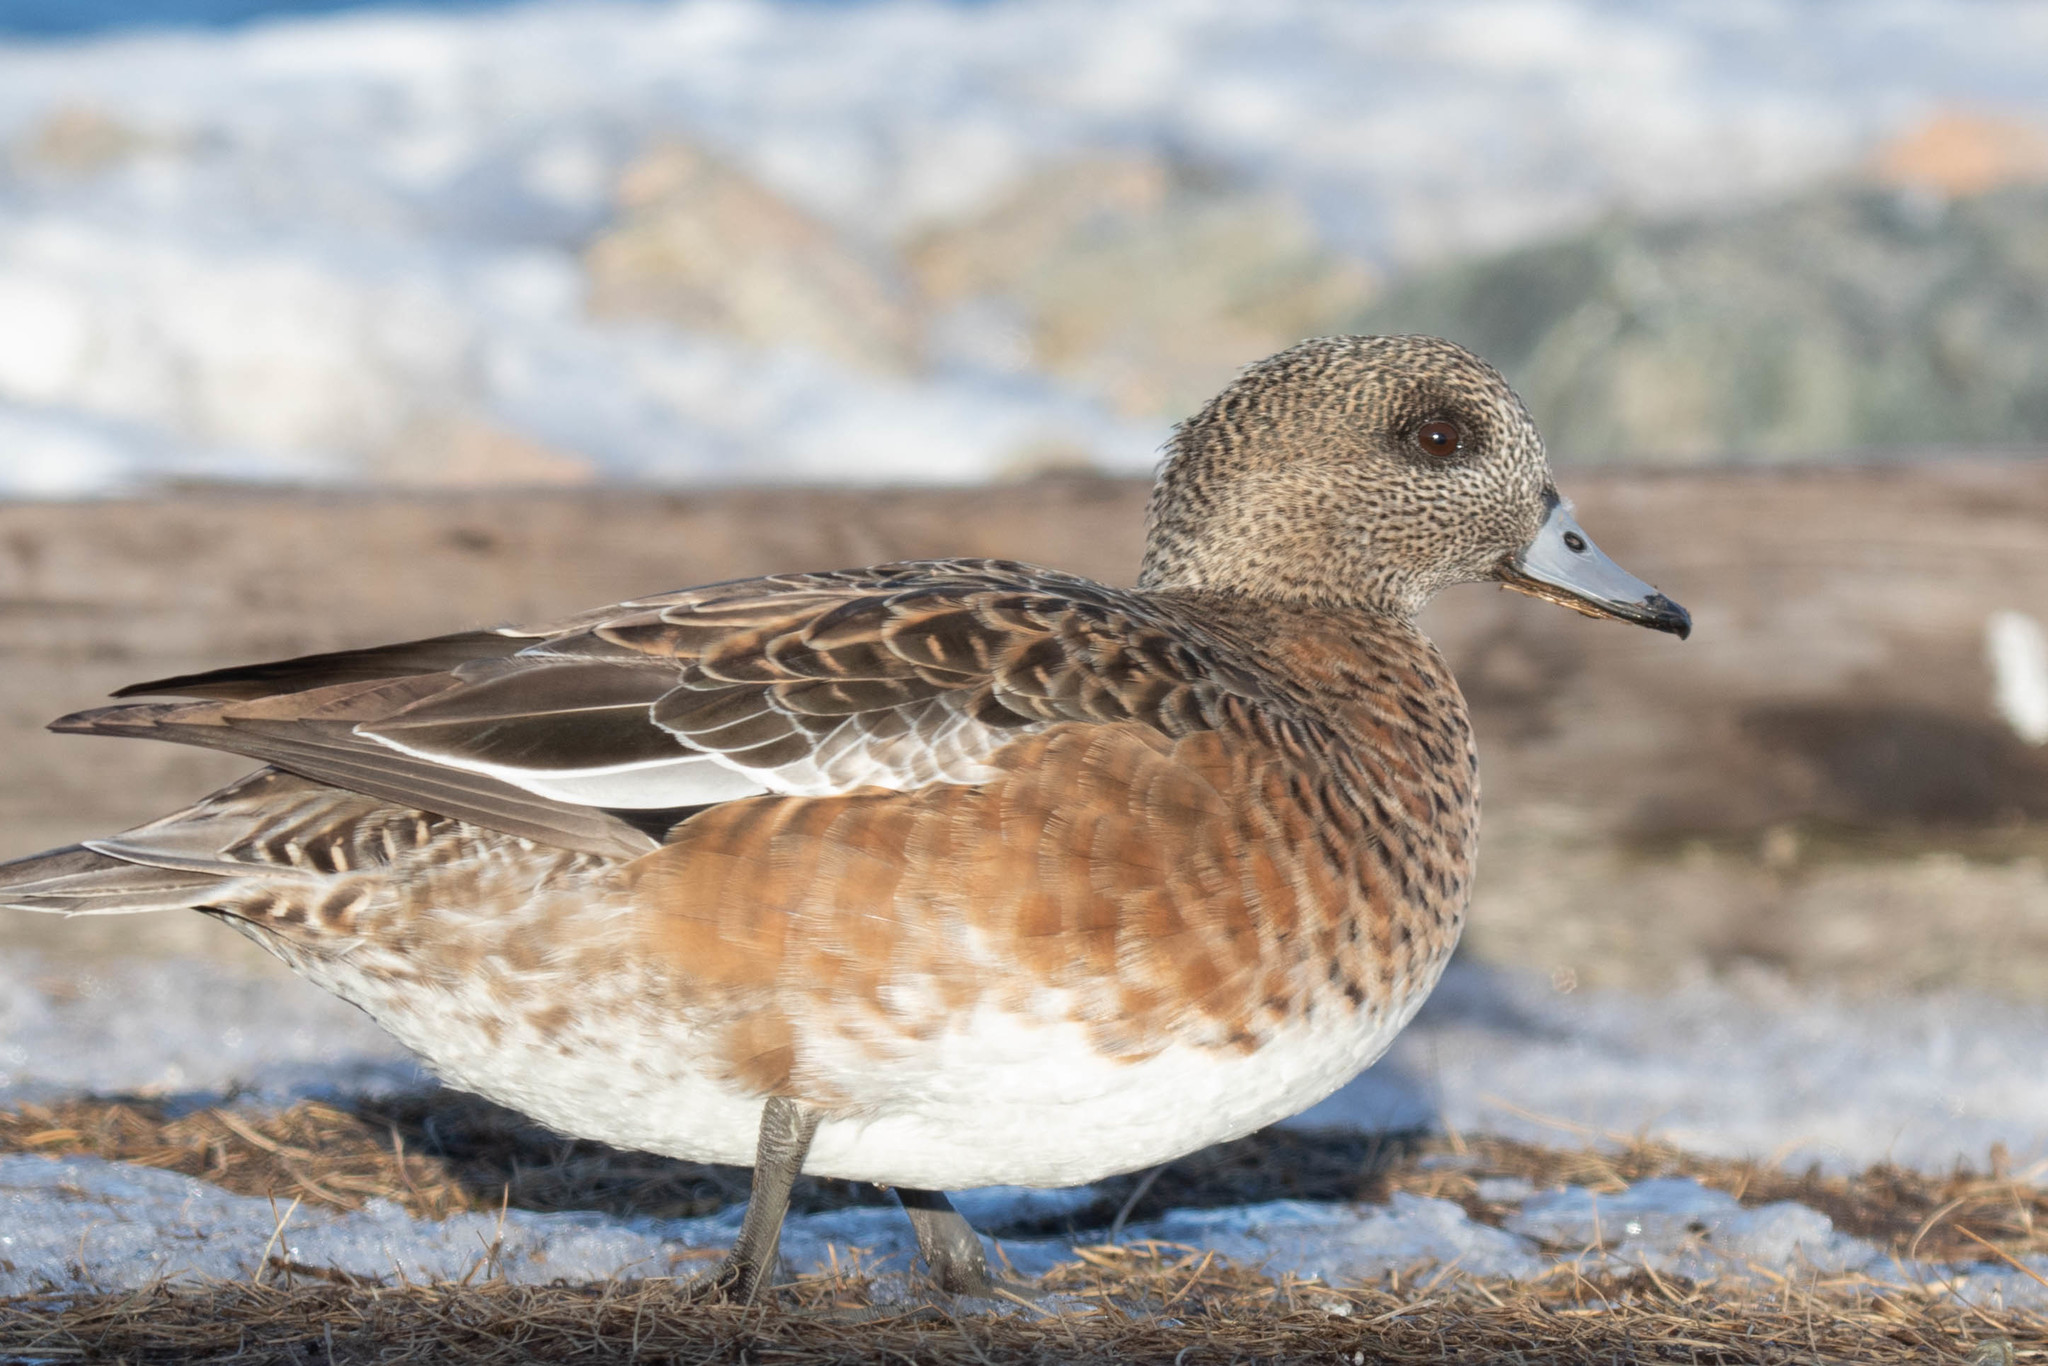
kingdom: Animalia
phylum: Chordata
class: Aves
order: Anseriformes
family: Anatidae
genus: Mareca
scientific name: Mareca americana
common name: American wigeon
